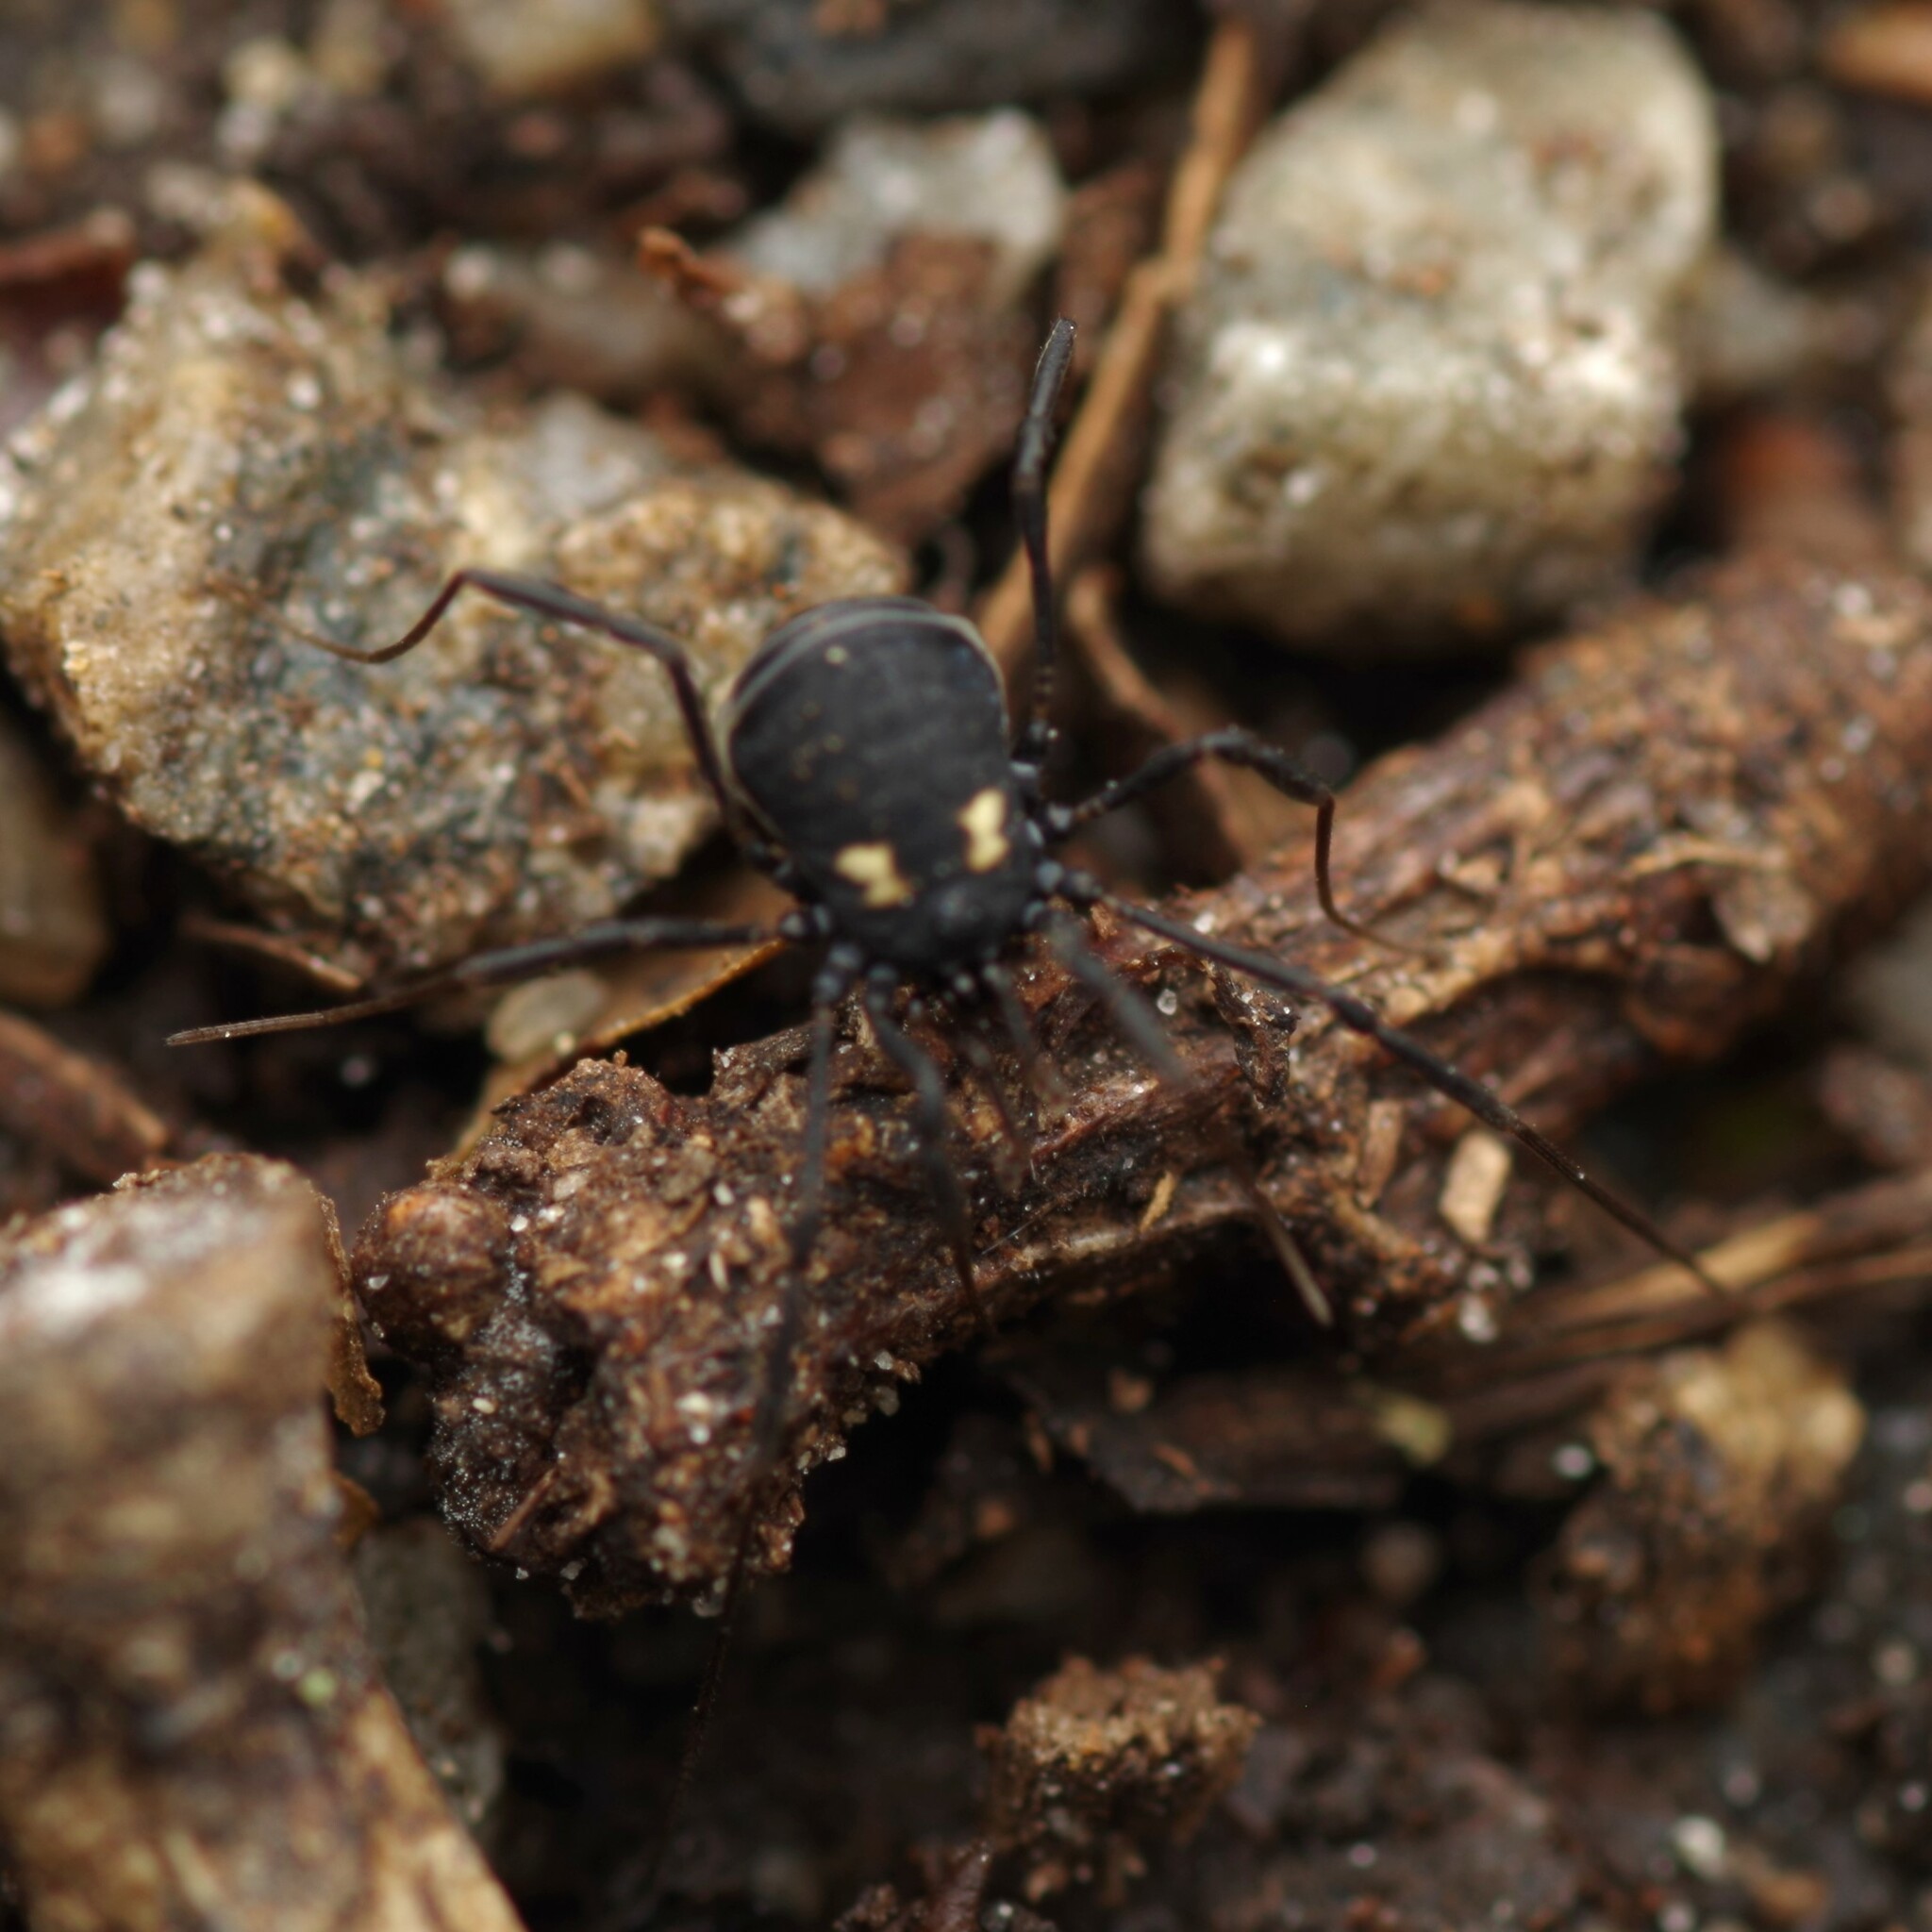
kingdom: Animalia
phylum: Arthropoda
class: Arachnida
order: Opiliones
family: Nemastomatidae
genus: Nemastoma
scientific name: Nemastoma bimaculatum
